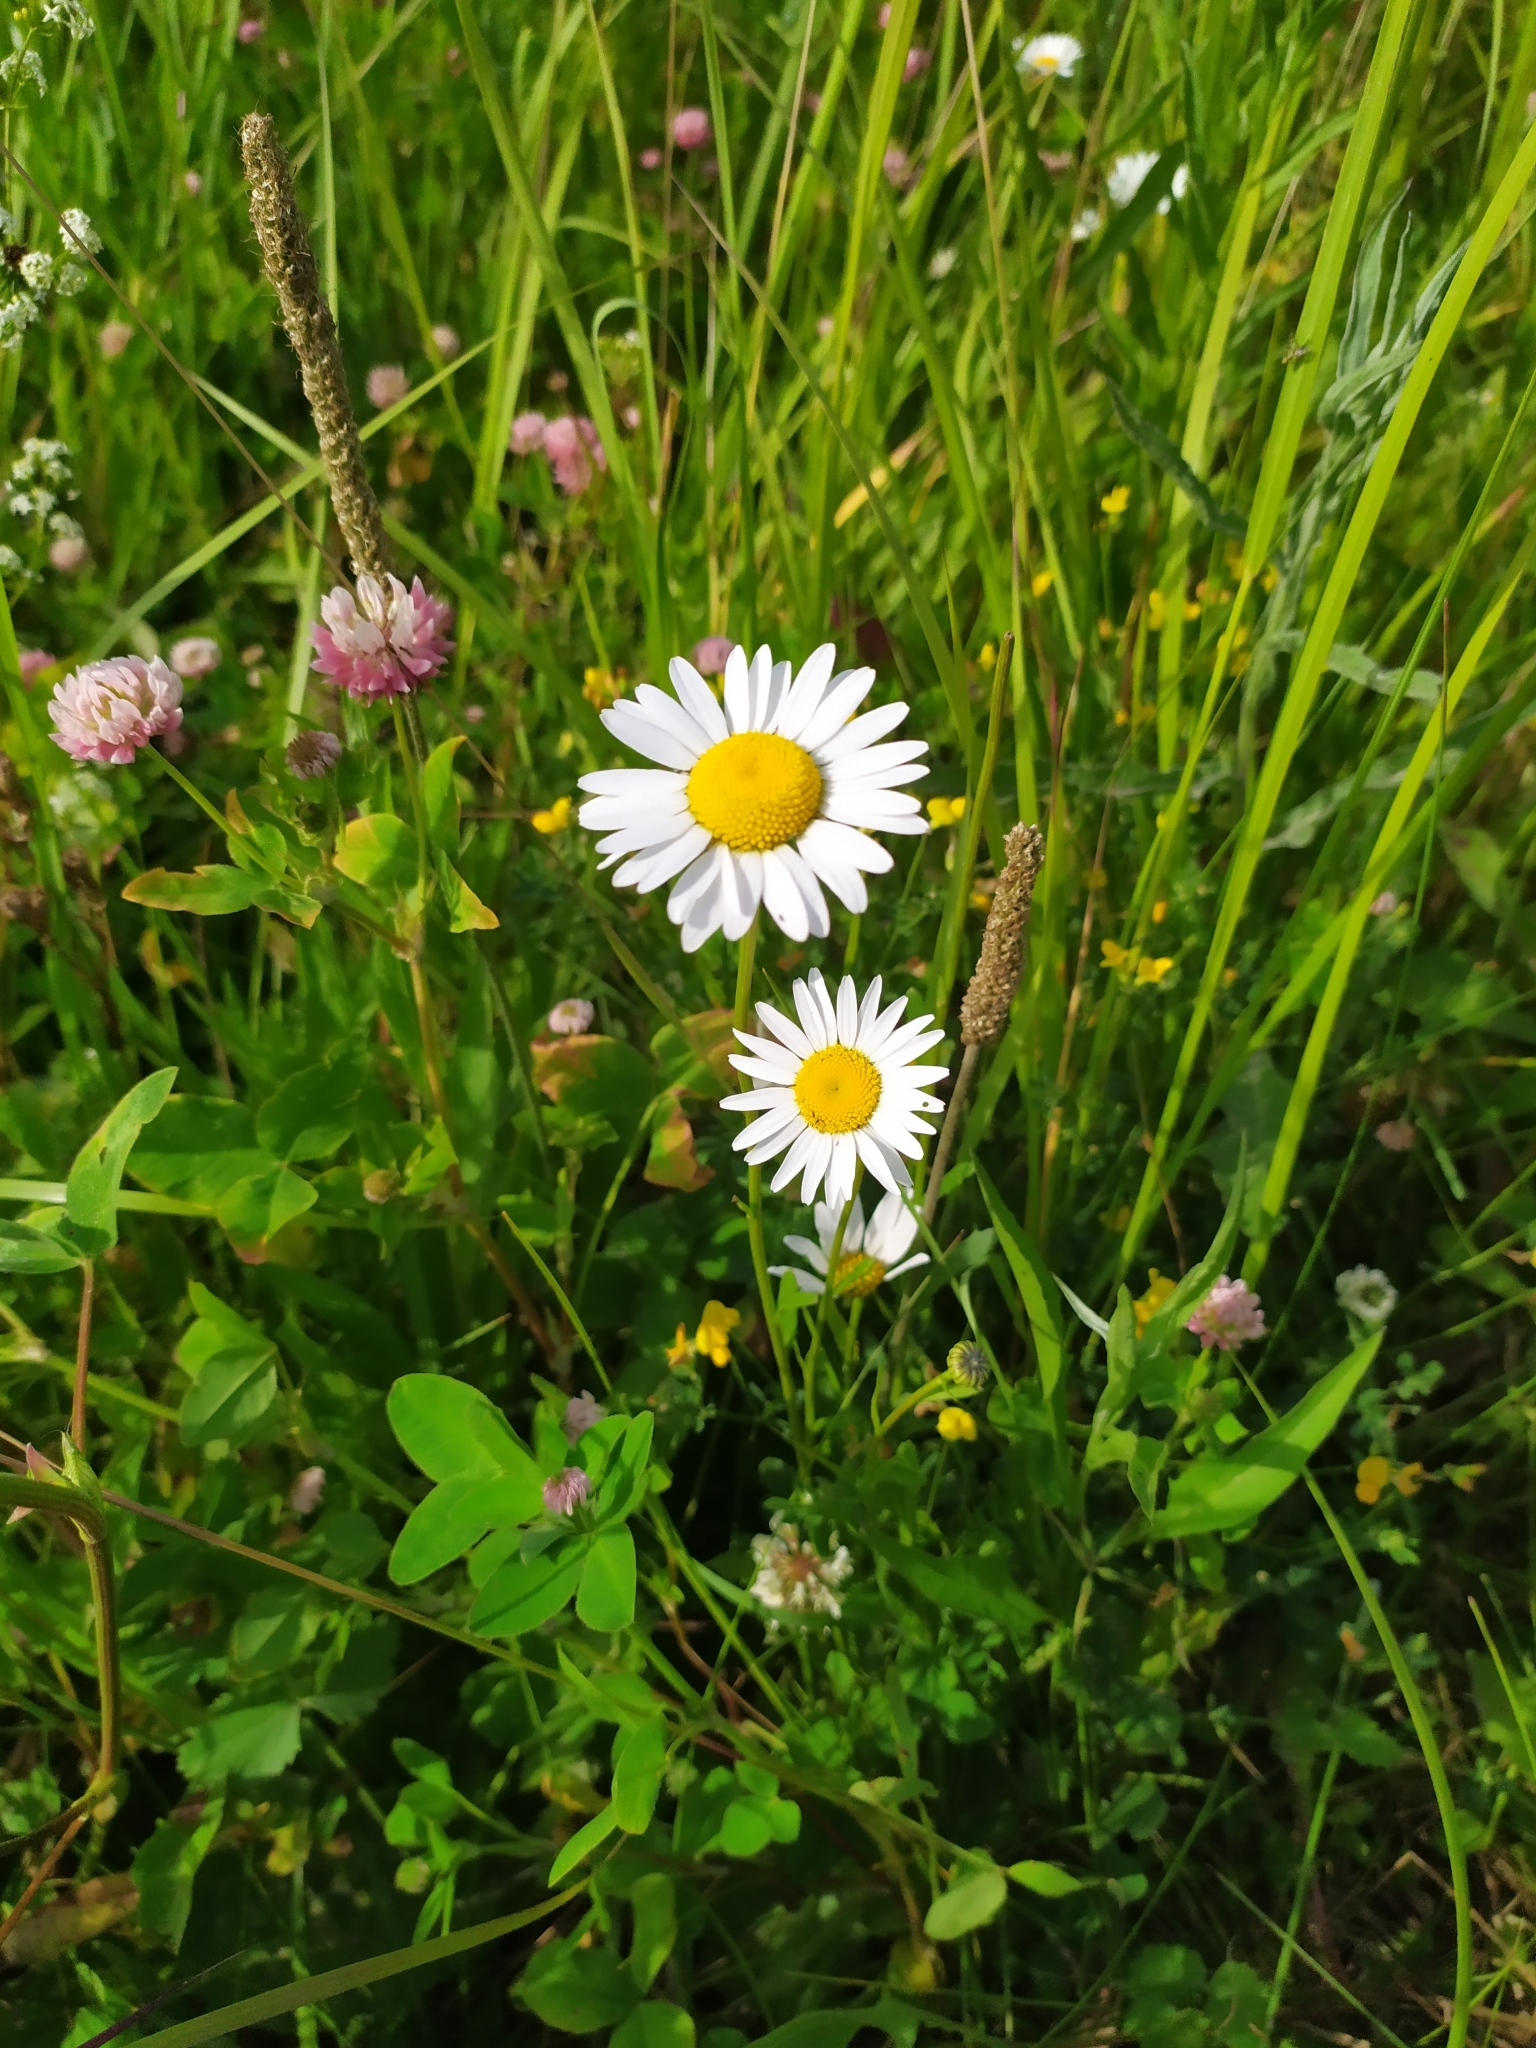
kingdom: Plantae
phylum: Tracheophyta
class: Magnoliopsida
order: Asterales
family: Asteraceae
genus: Leucanthemum
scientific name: Leucanthemum vulgare
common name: Oxeye daisy
